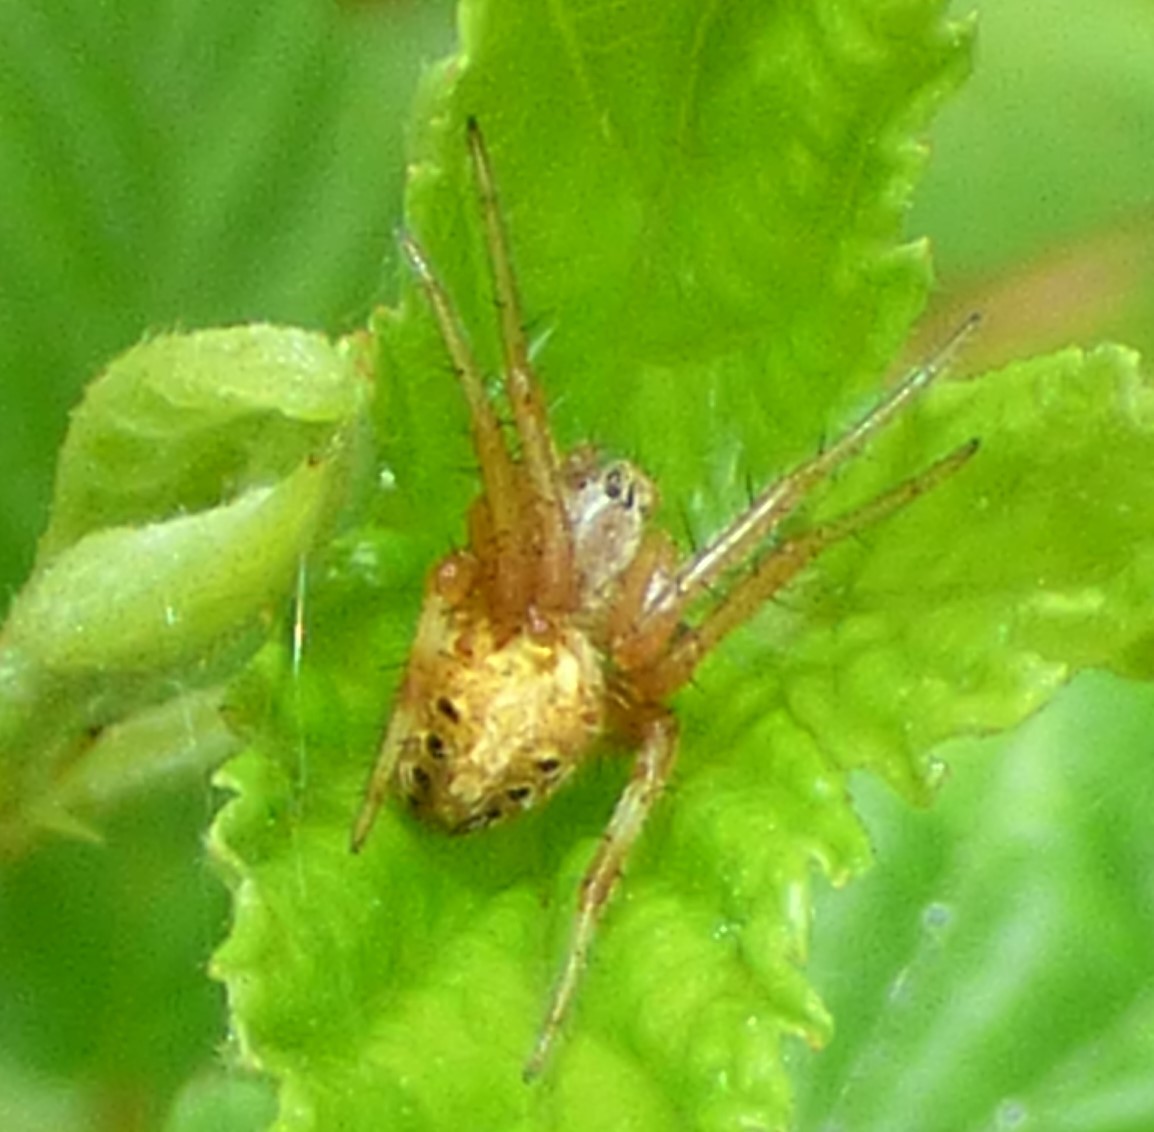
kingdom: Animalia
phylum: Arthropoda
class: Arachnida
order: Araneae
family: Araneidae
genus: Neoscona
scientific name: Neoscona arabesca
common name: Orb weavers
